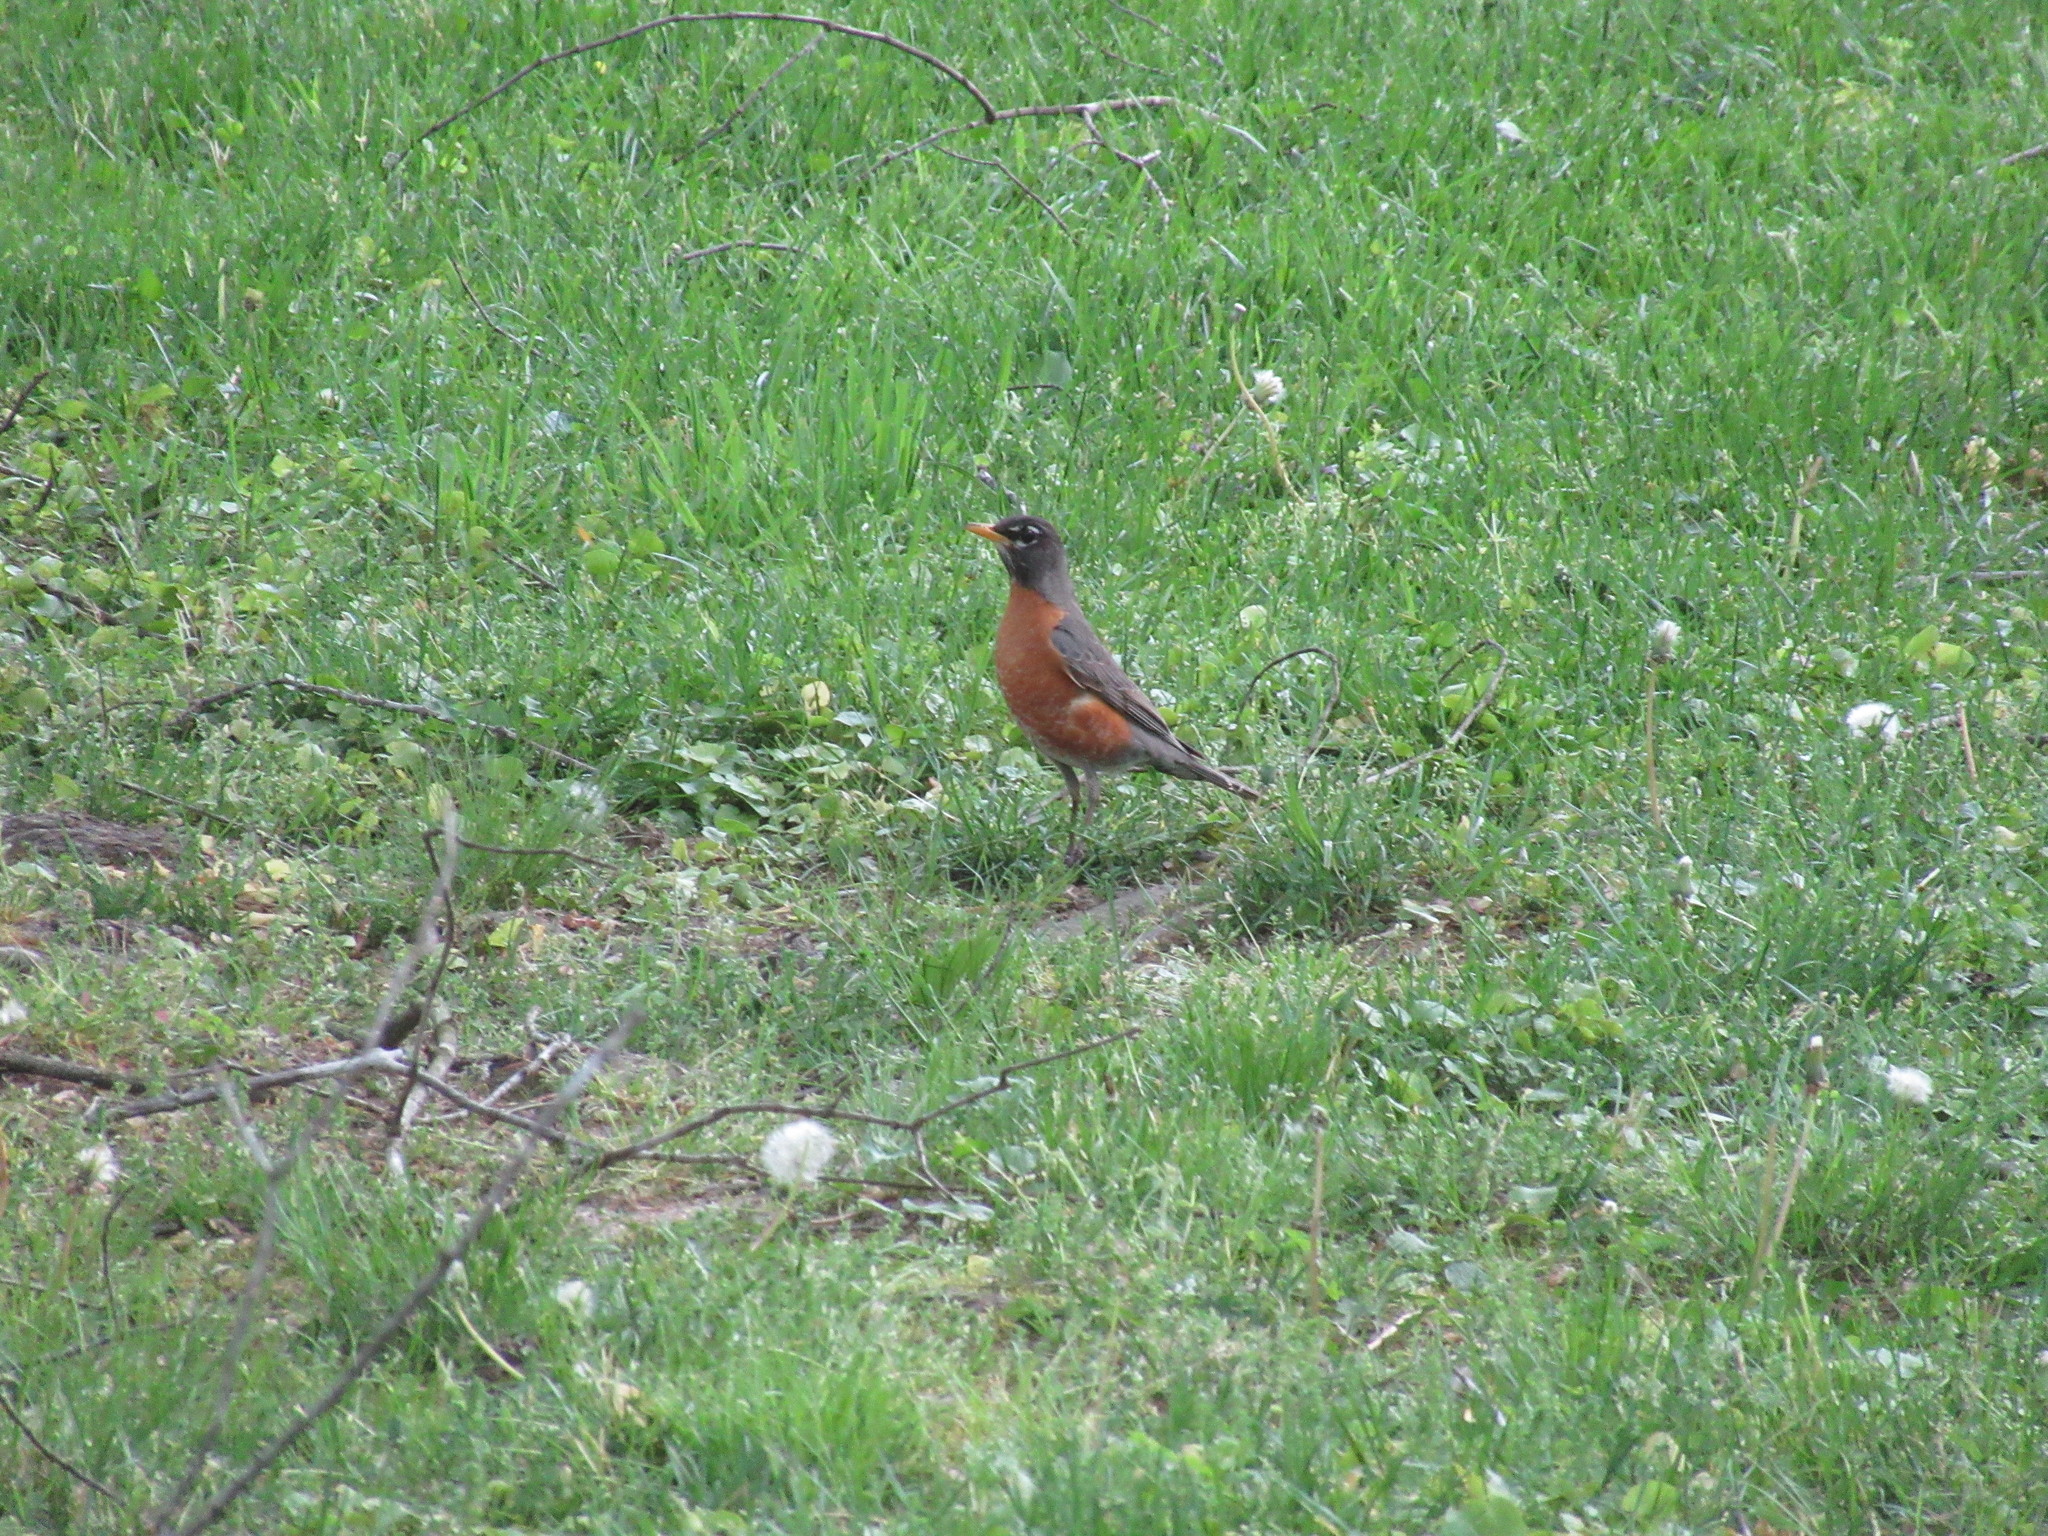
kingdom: Animalia
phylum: Chordata
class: Aves
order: Passeriformes
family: Turdidae
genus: Turdus
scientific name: Turdus migratorius
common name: American robin
